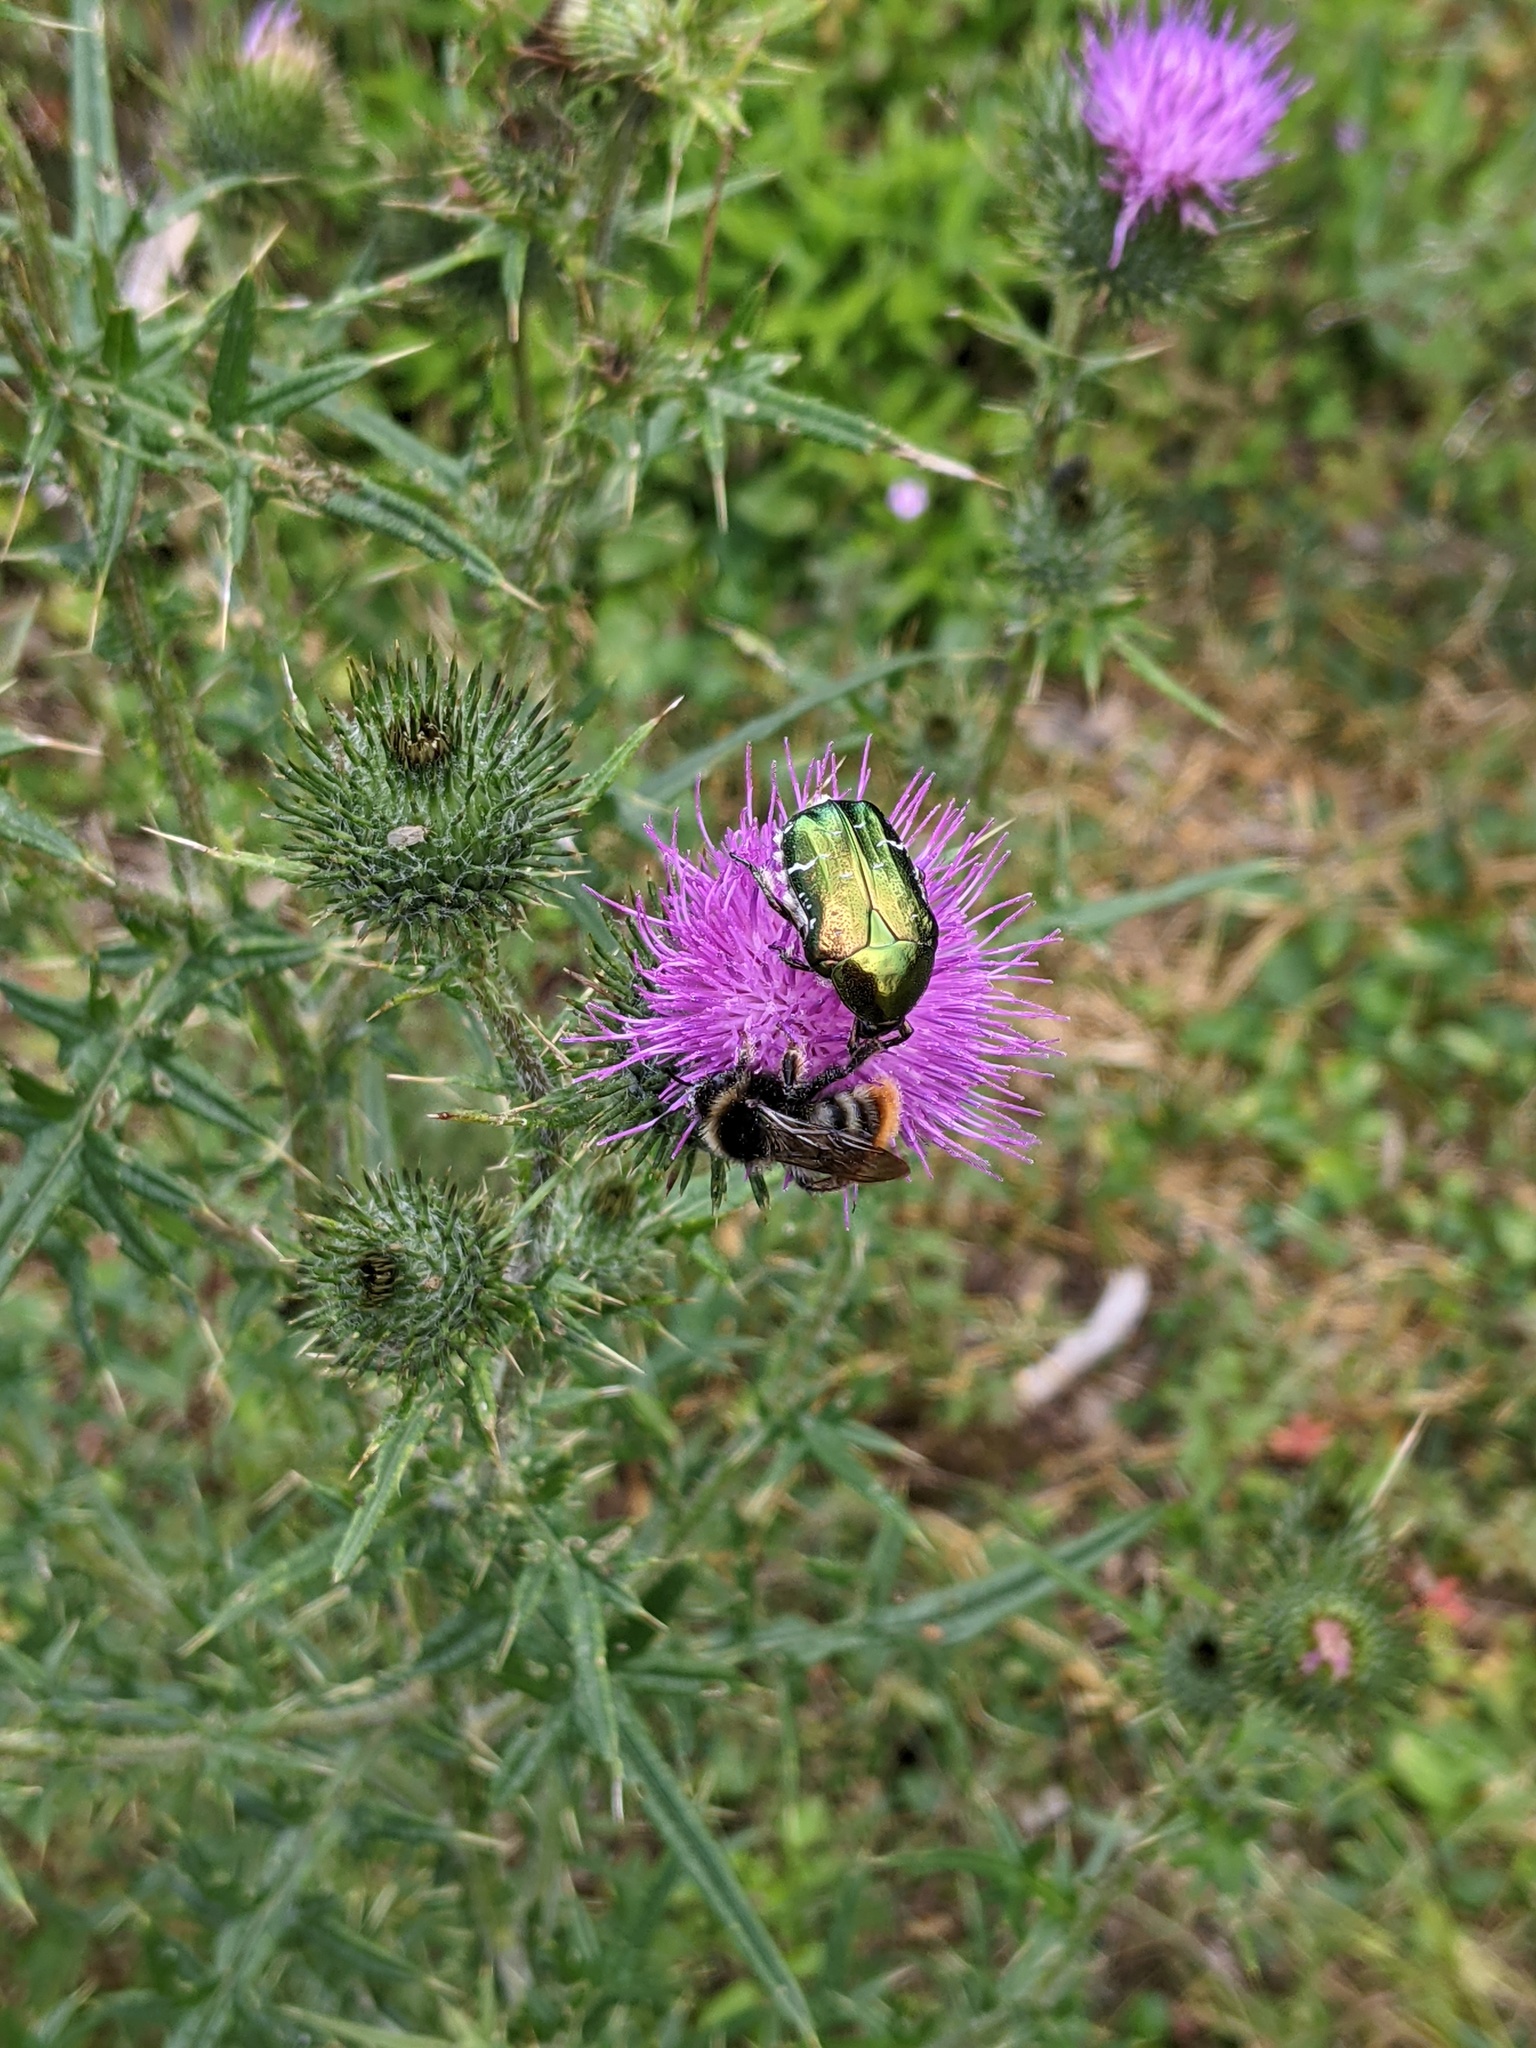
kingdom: Animalia
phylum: Arthropoda
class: Insecta
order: Coleoptera
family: Scarabaeidae
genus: Cetonia
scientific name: Cetonia aurata
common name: Rose chafer
